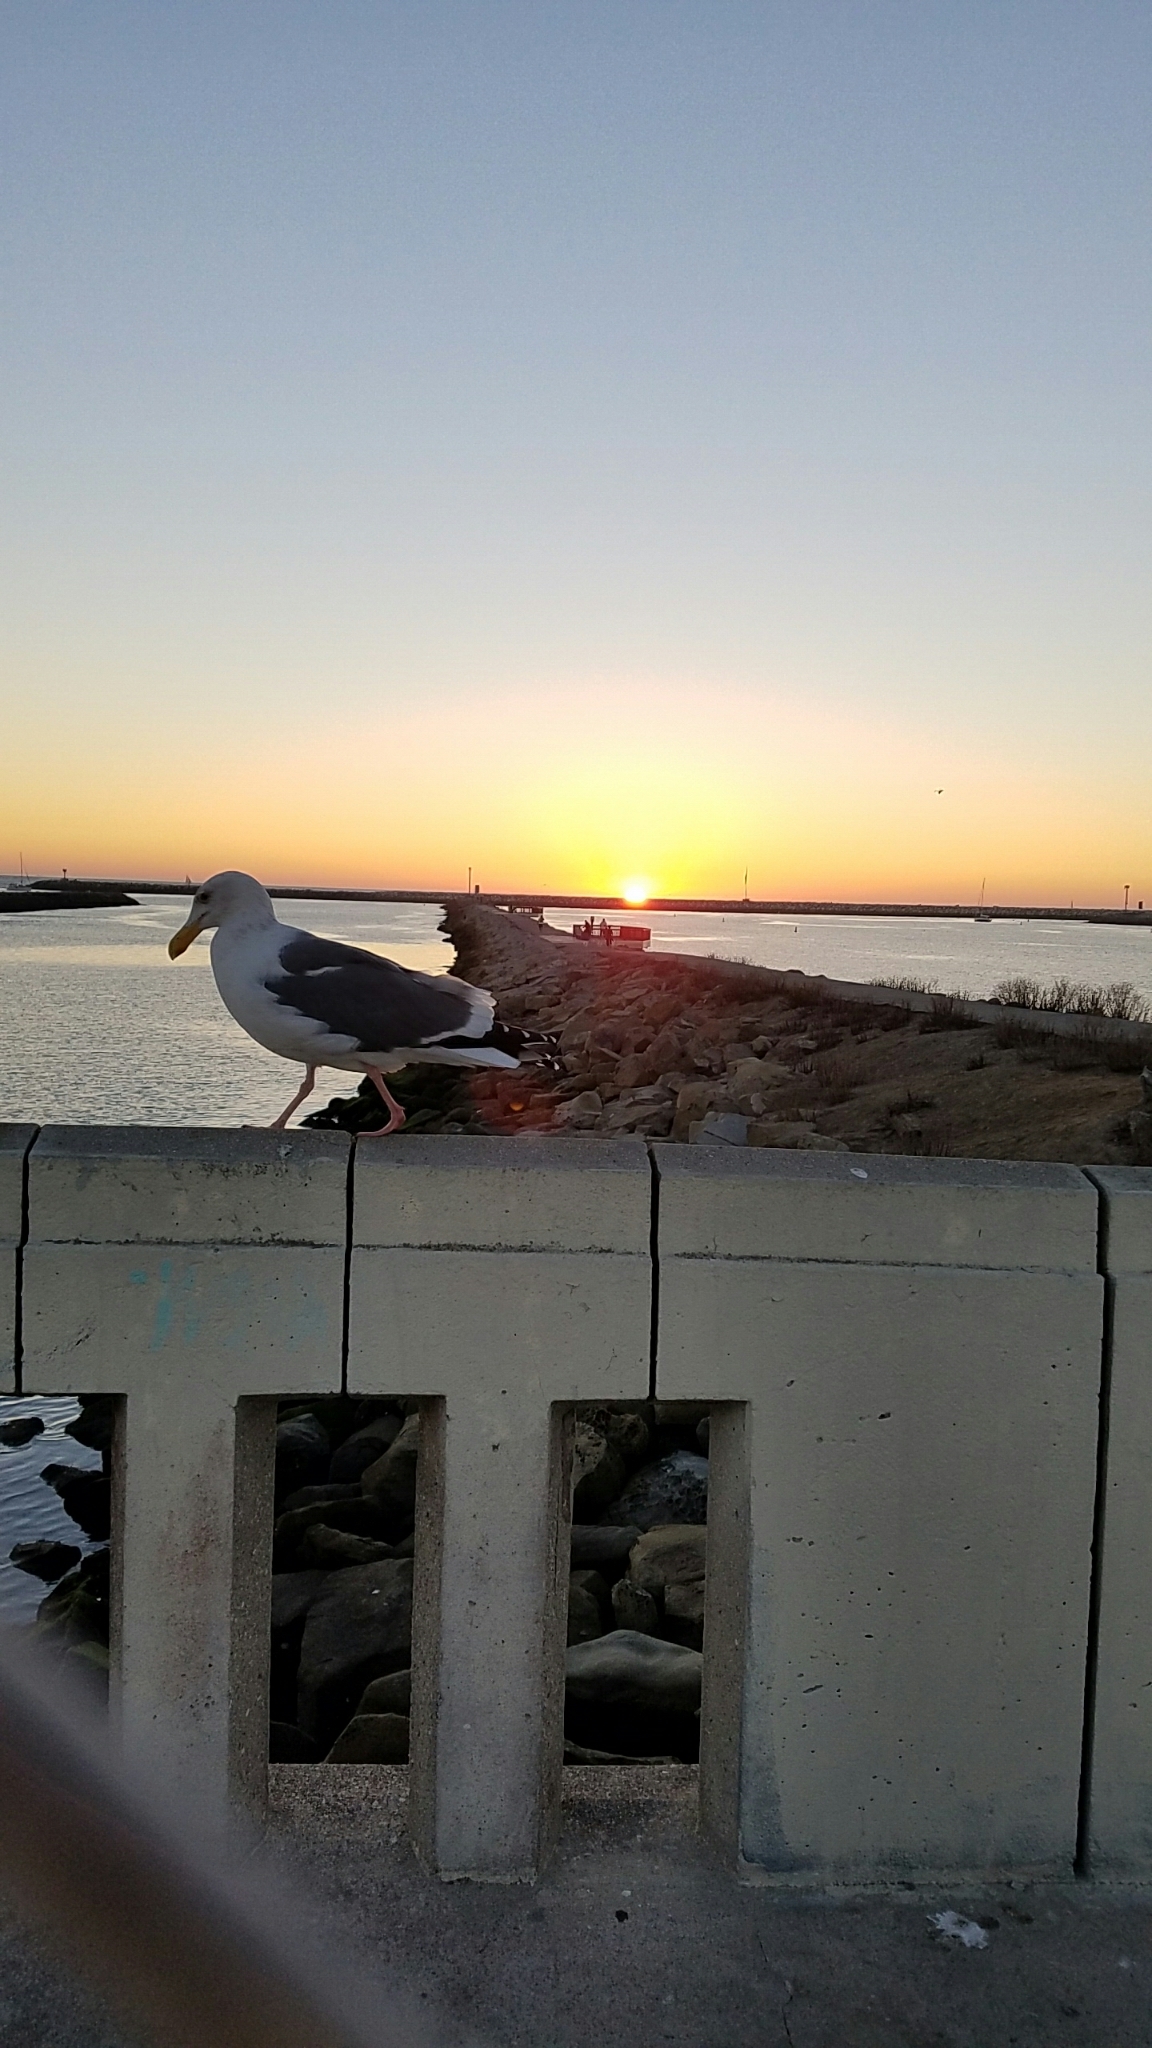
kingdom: Animalia
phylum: Chordata
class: Aves
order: Charadriiformes
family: Laridae
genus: Larus
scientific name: Larus occidentalis
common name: Western gull
